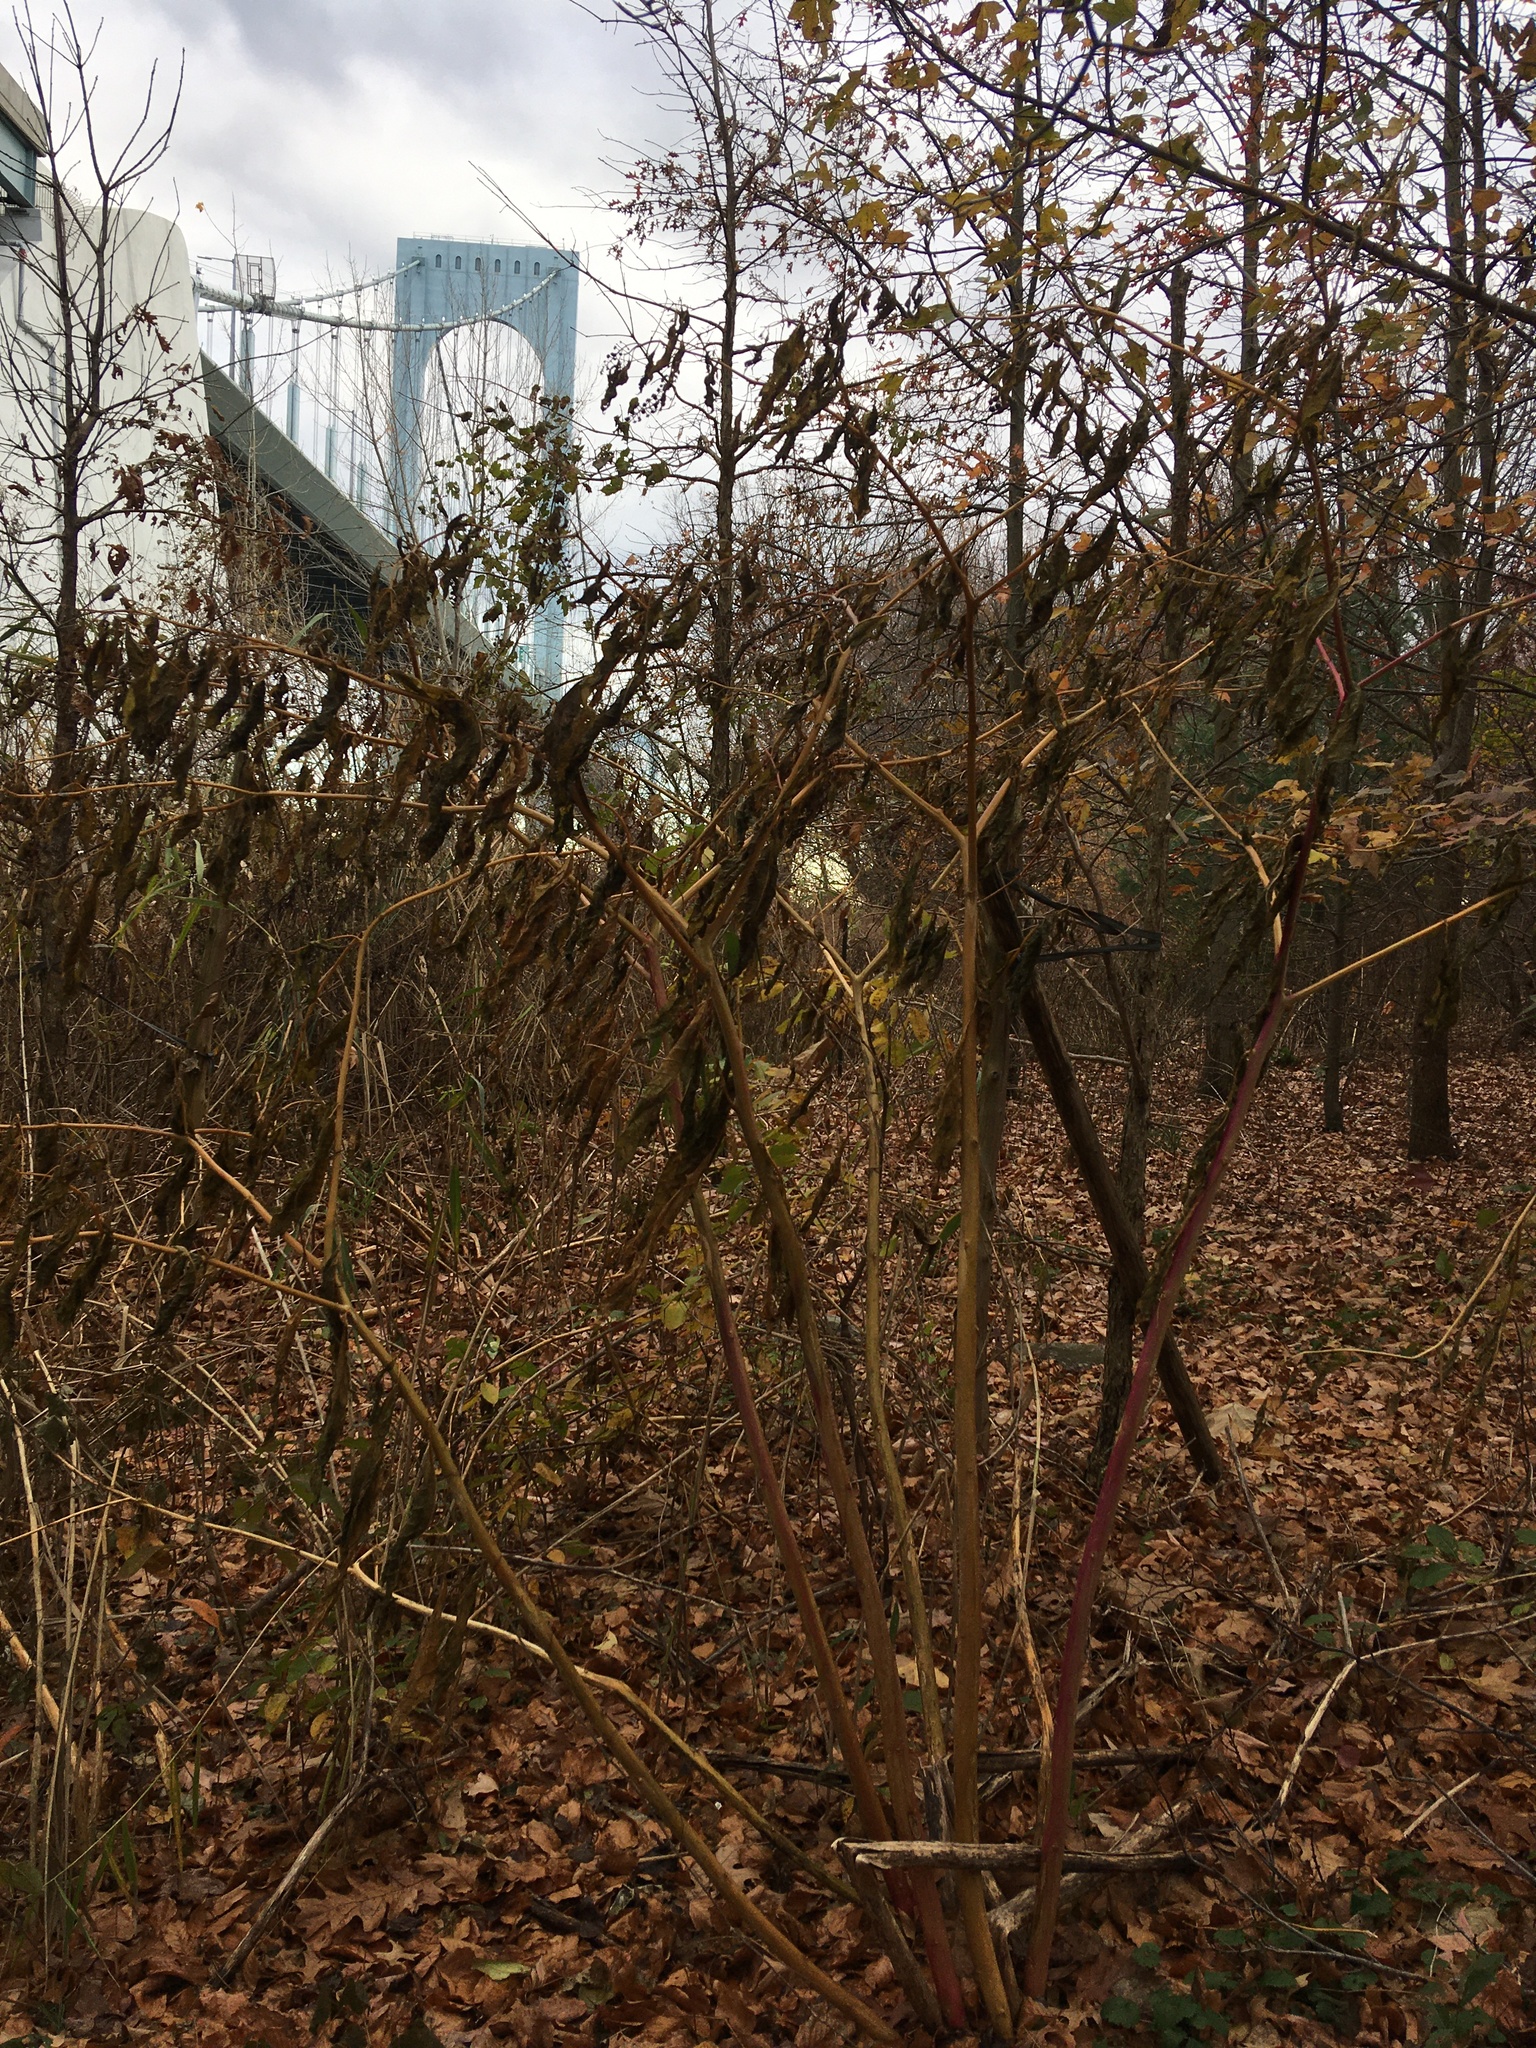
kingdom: Plantae
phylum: Tracheophyta
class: Magnoliopsida
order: Caryophyllales
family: Phytolaccaceae
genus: Phytolacca
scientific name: Phytolacca americana
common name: American pokeweed
